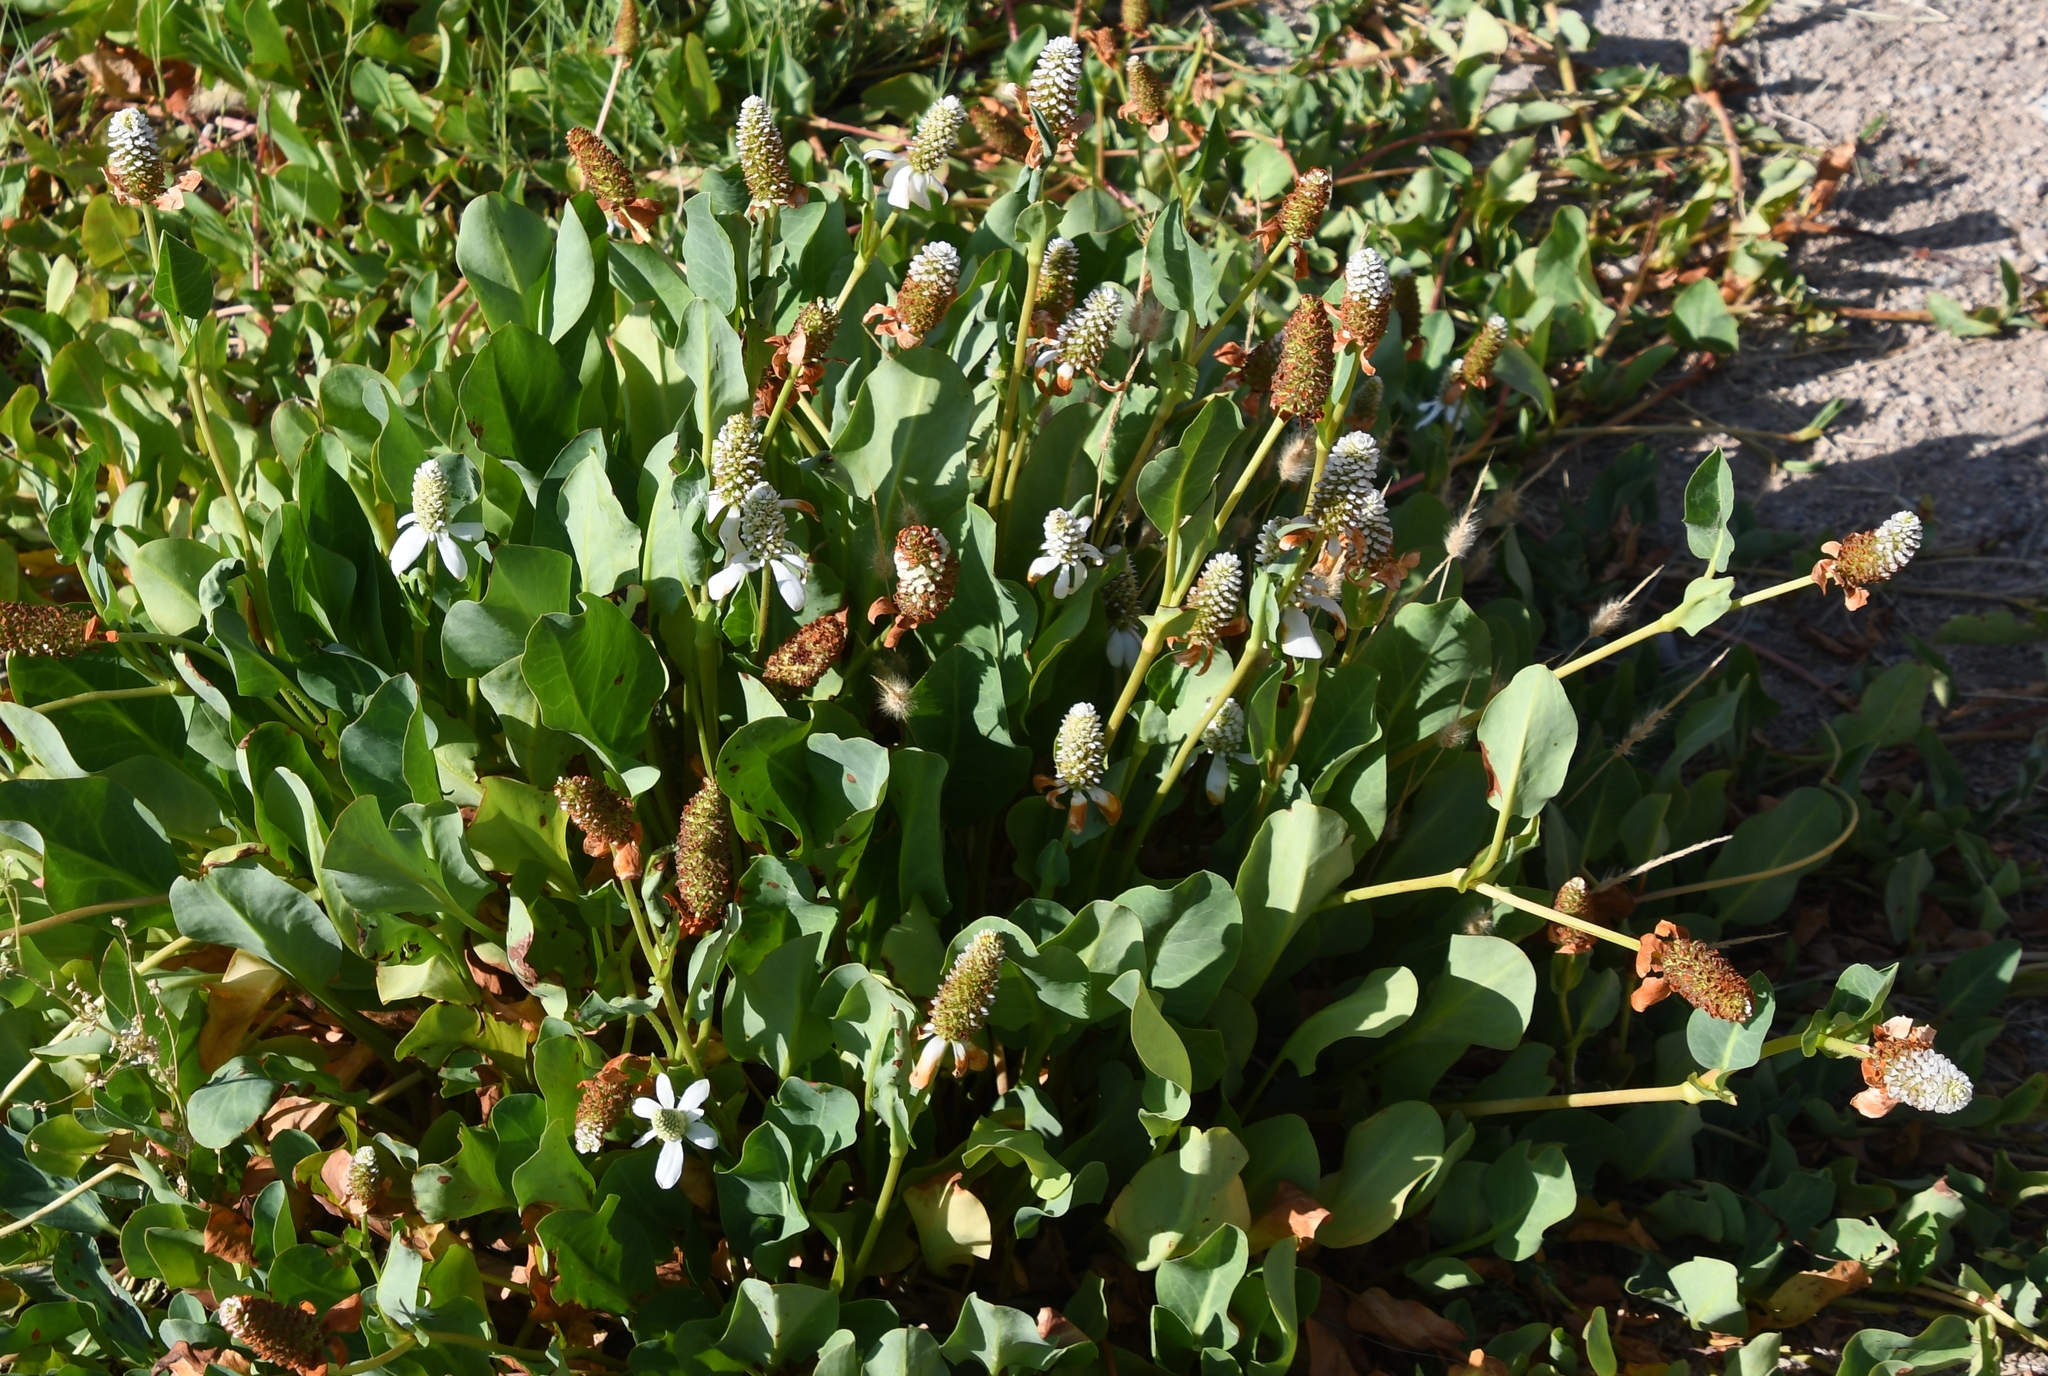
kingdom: Plantae
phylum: Tracheophyta
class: Magnoliopsida
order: Piperales
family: Saururaceae
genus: Anemopsis
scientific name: Anemopsis californica
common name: Apache-beads
